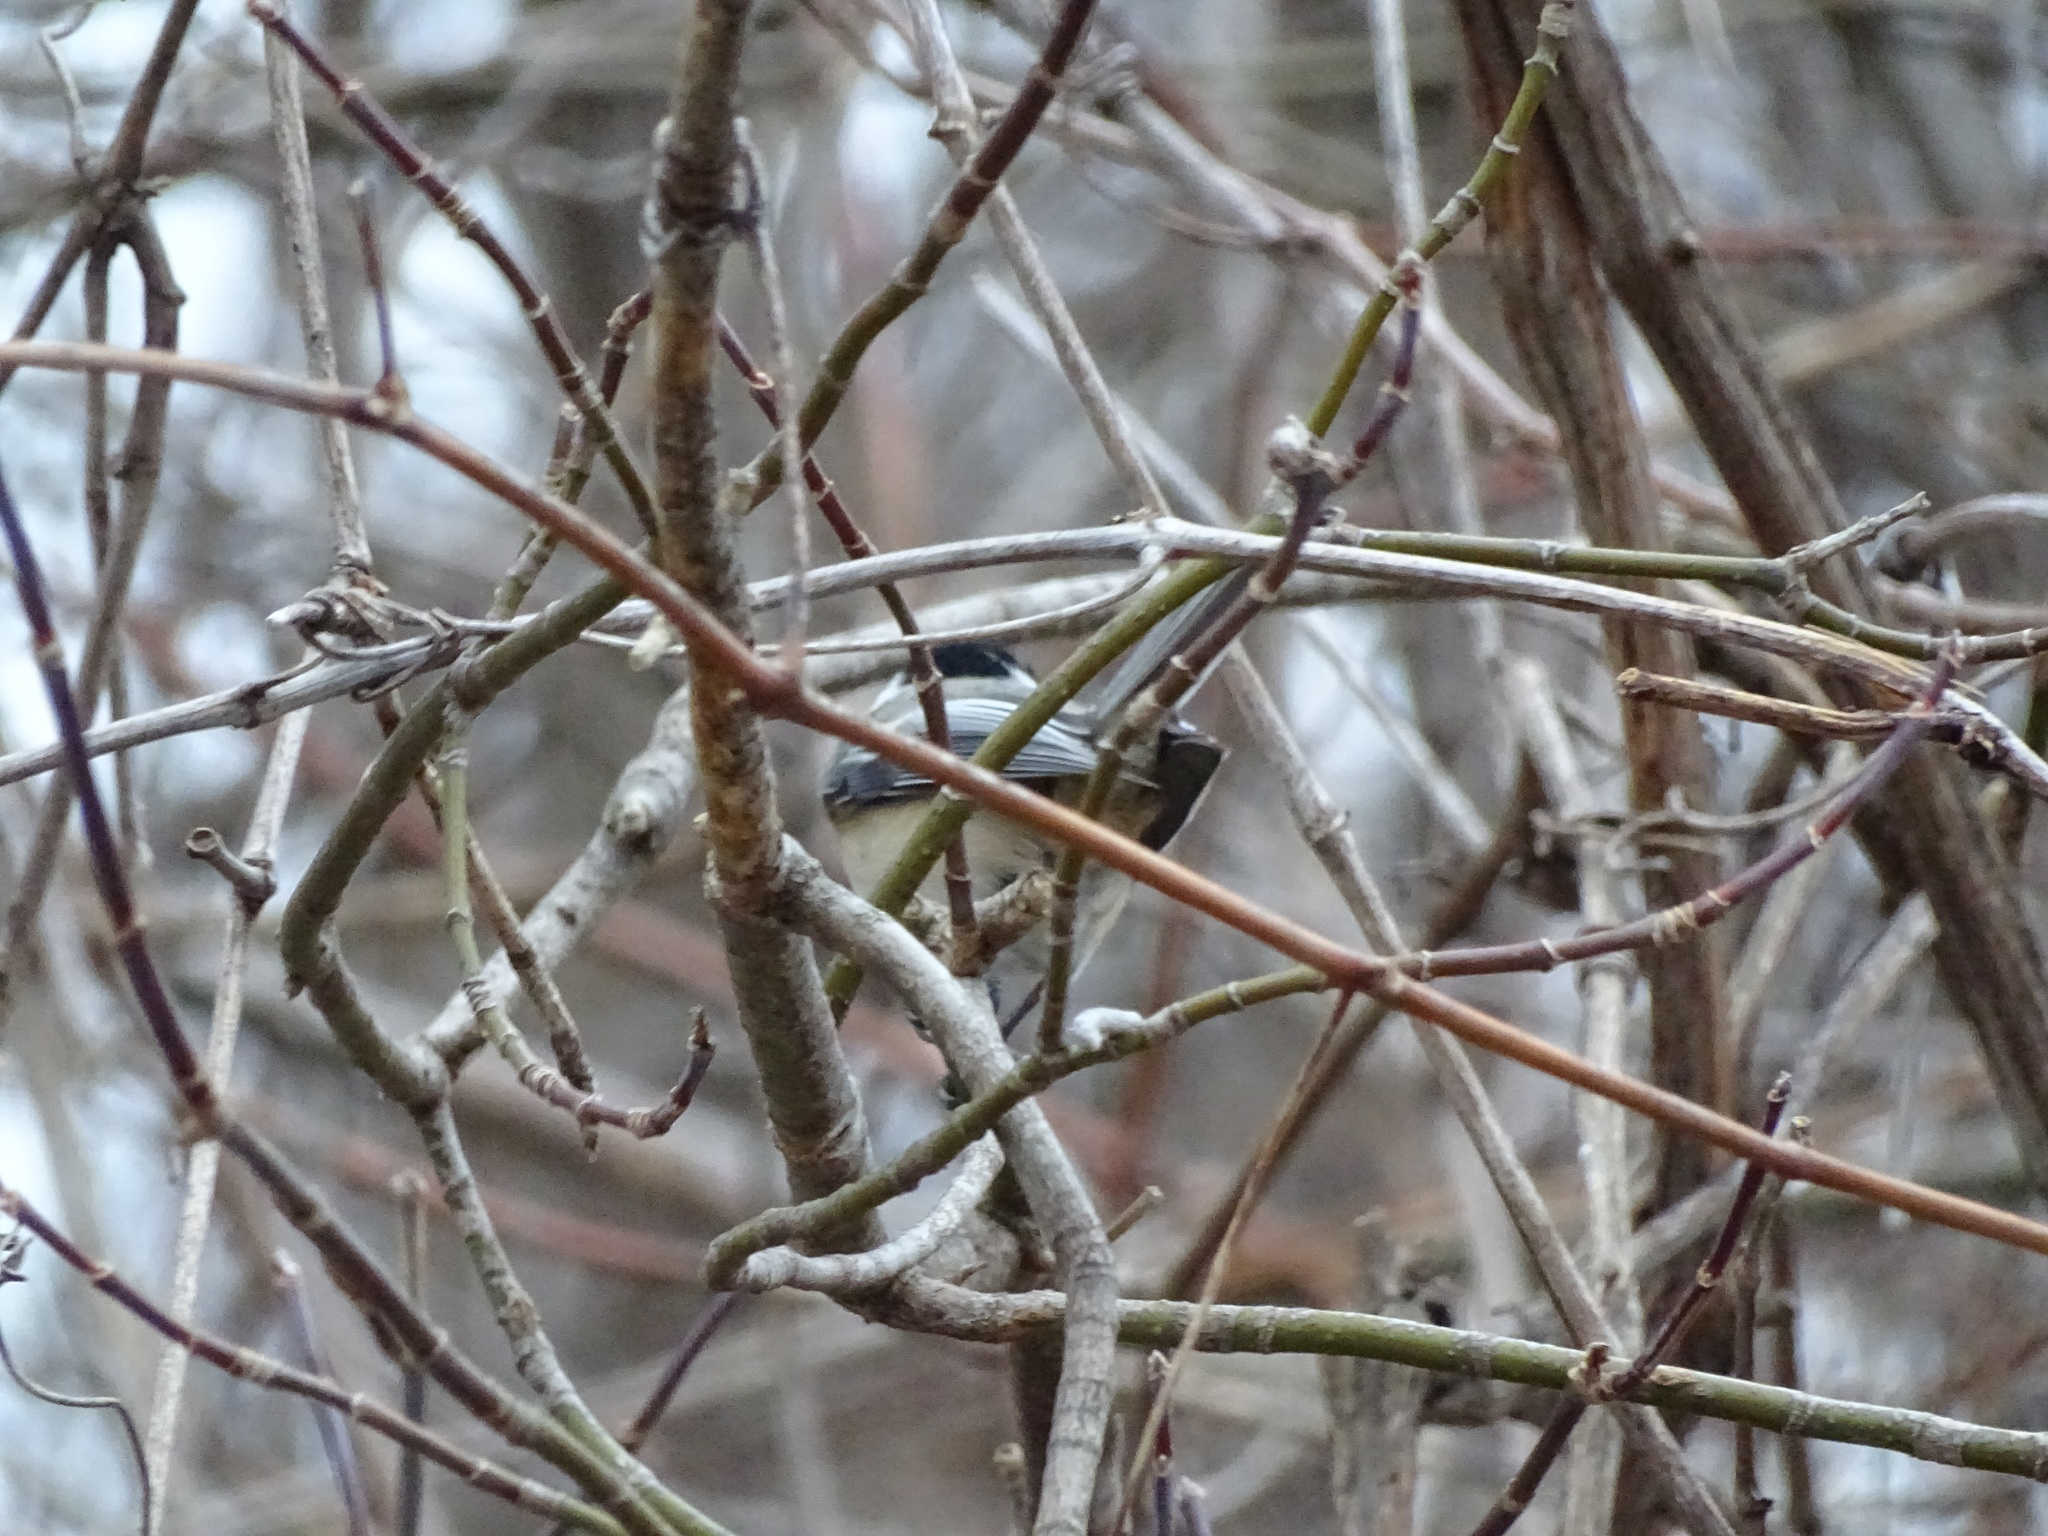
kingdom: Animalia
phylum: Chordata
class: Aves
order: Passeriformes
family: Paridae
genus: Poecile
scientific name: Poecile atricapillus
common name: Black-capped chickadee
